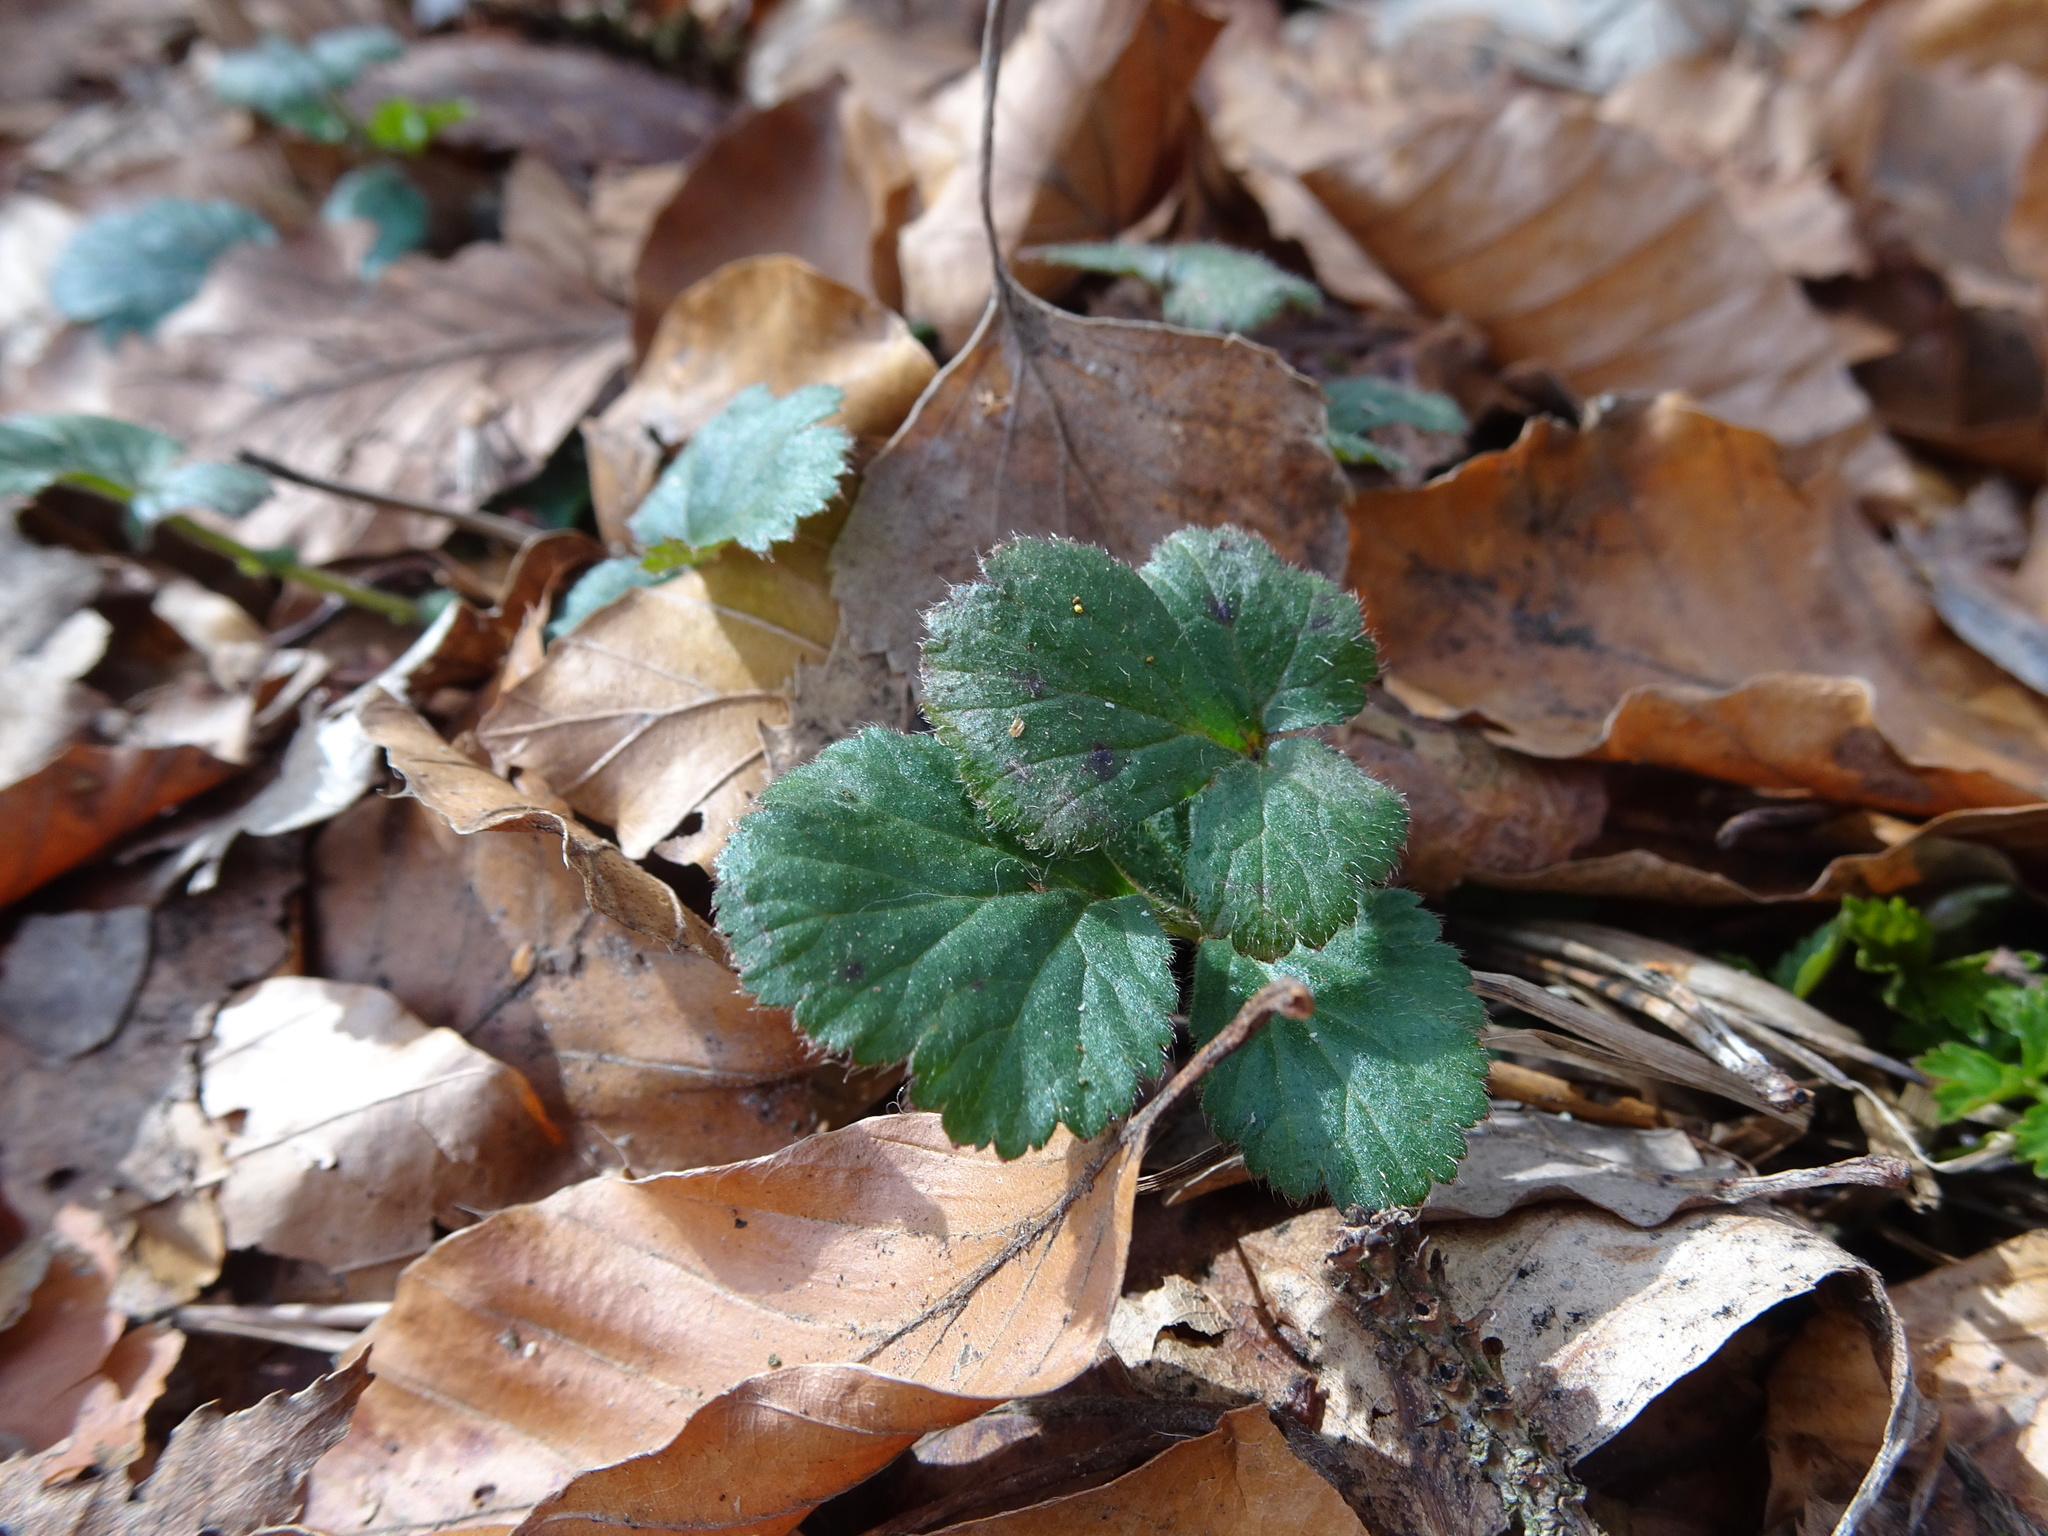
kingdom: Plantae
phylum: Tracheophyta
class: Magnoliopsida
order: Rosales
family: Rosaceae
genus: Geum
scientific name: Geum urbanum
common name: Wood avens
